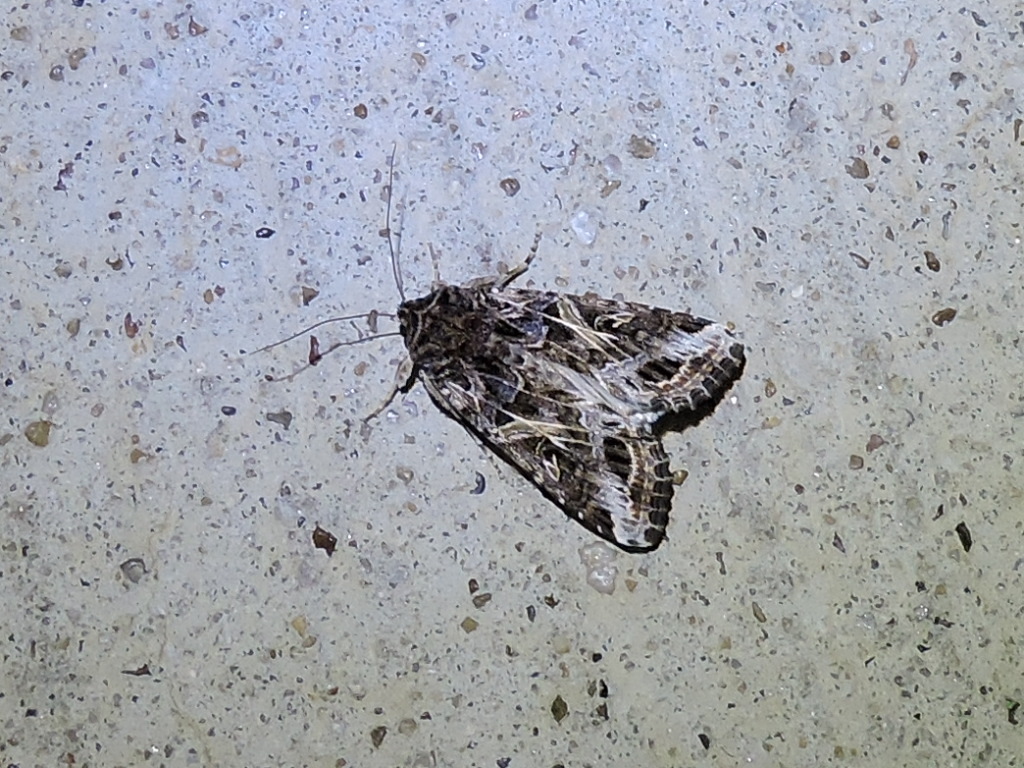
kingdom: Animalia
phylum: Arthropoda
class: Insecta
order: Lepidoptera
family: Noctuidae
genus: Spodoptera
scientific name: Spodoptera ornithogalli
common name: Yellow-striped armyworm
